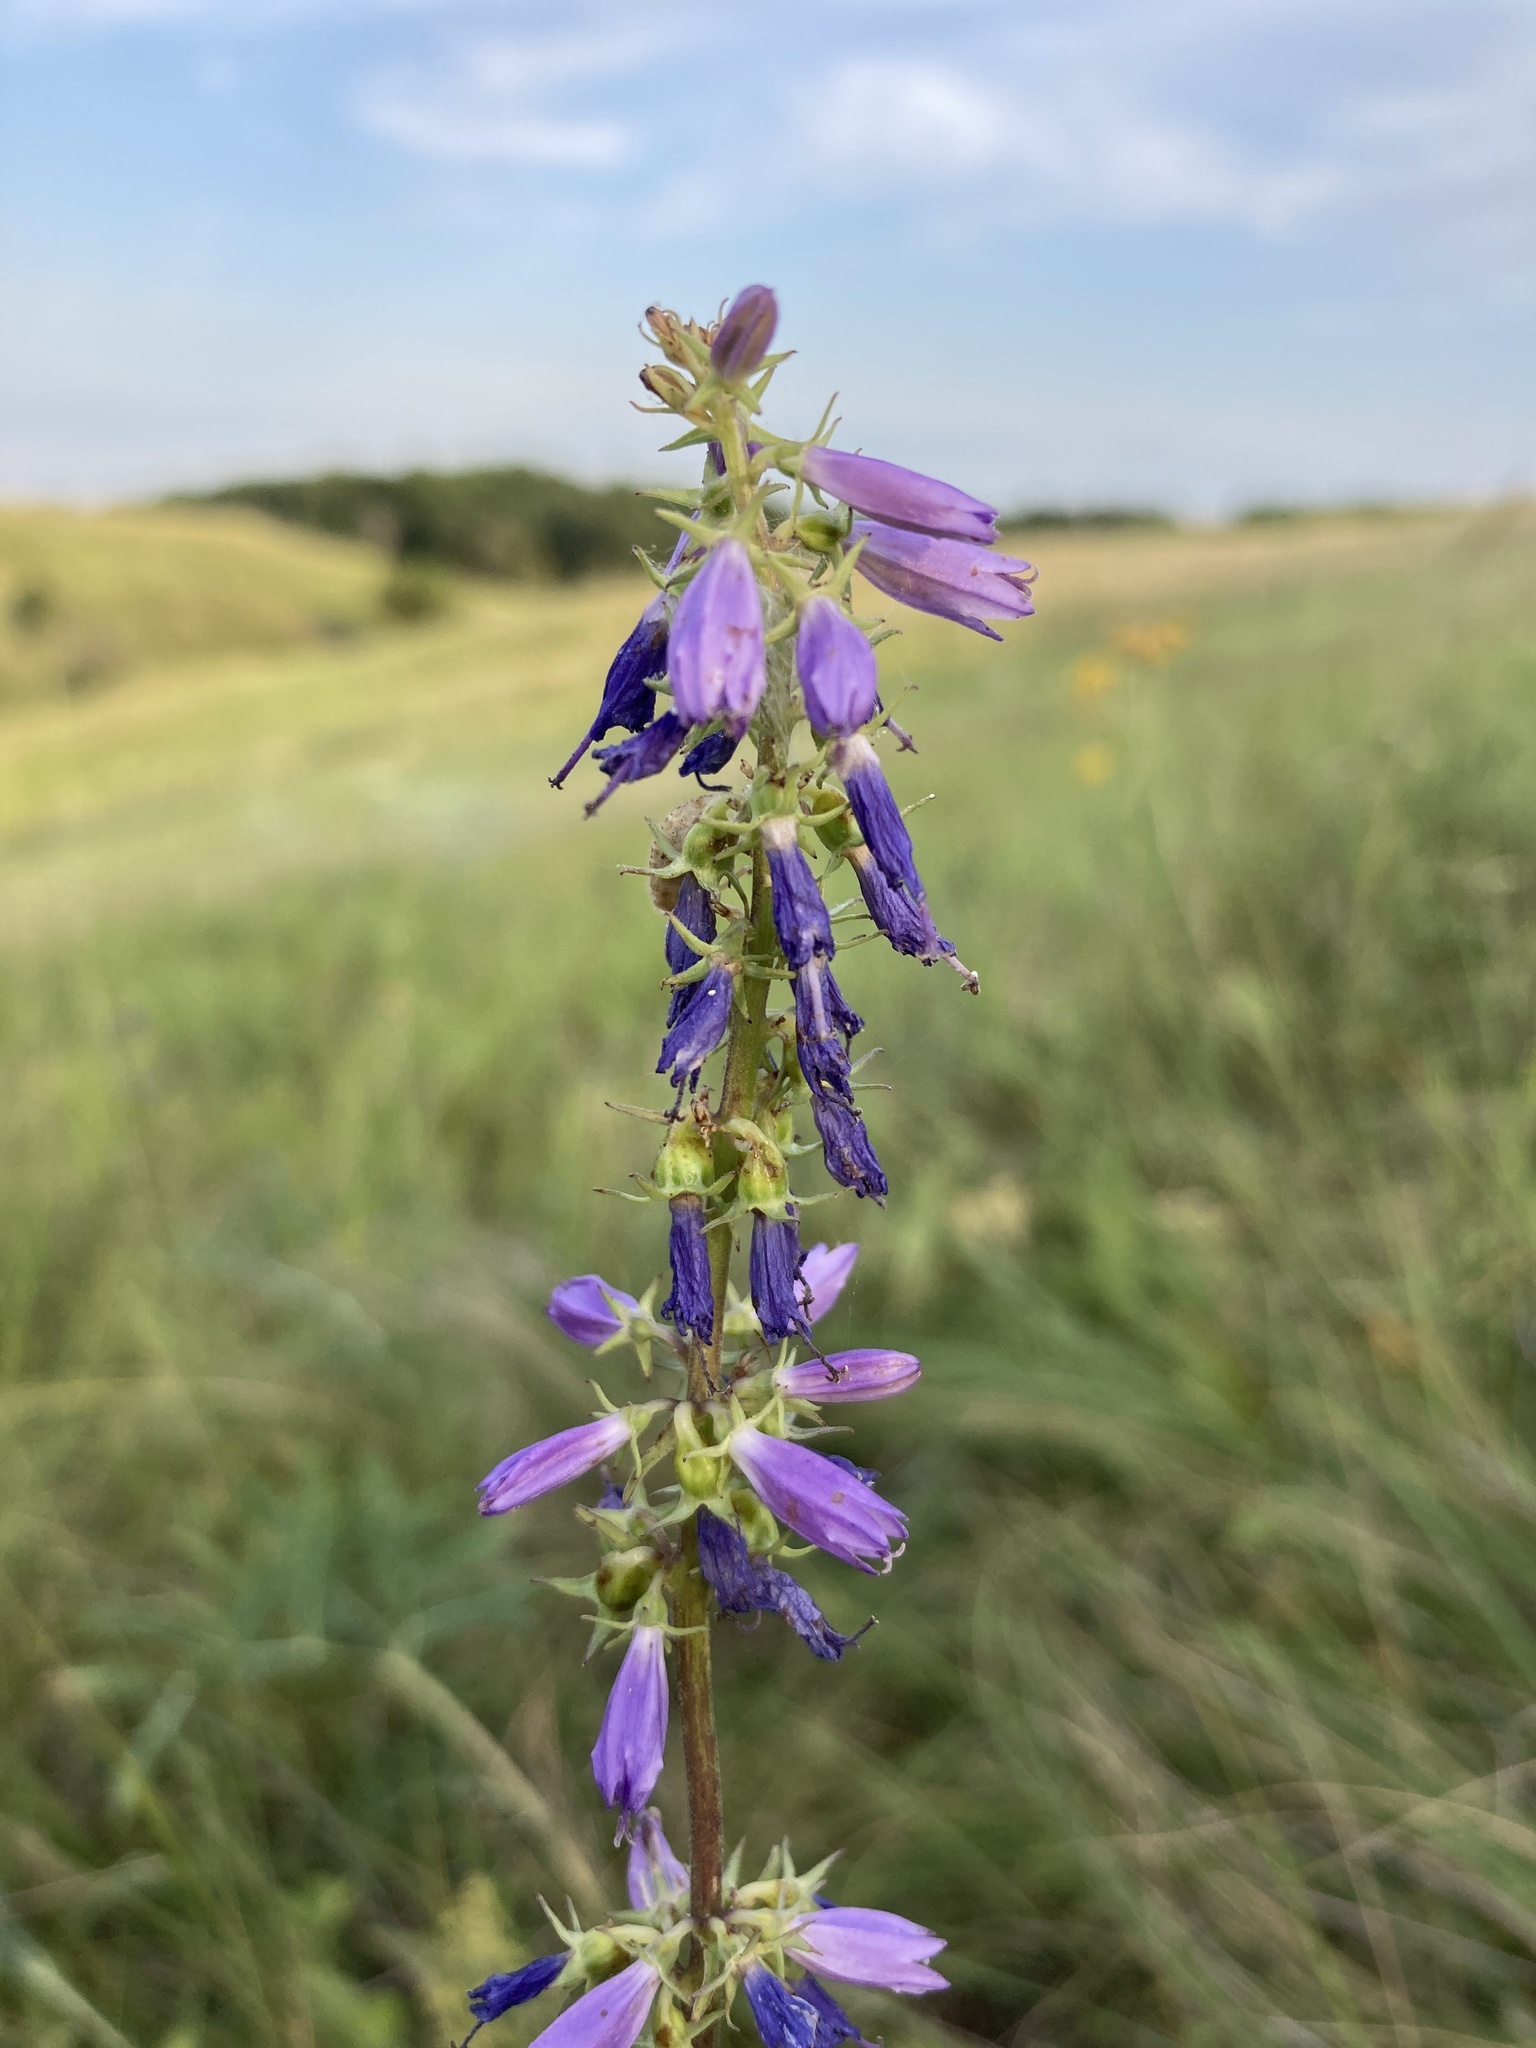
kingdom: Plantae
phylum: Tracheophyta
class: Magnoliopsida
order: Asterales
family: Campanulaceae
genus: Campanula
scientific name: Campanula bononiensis
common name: Pale bellflower
